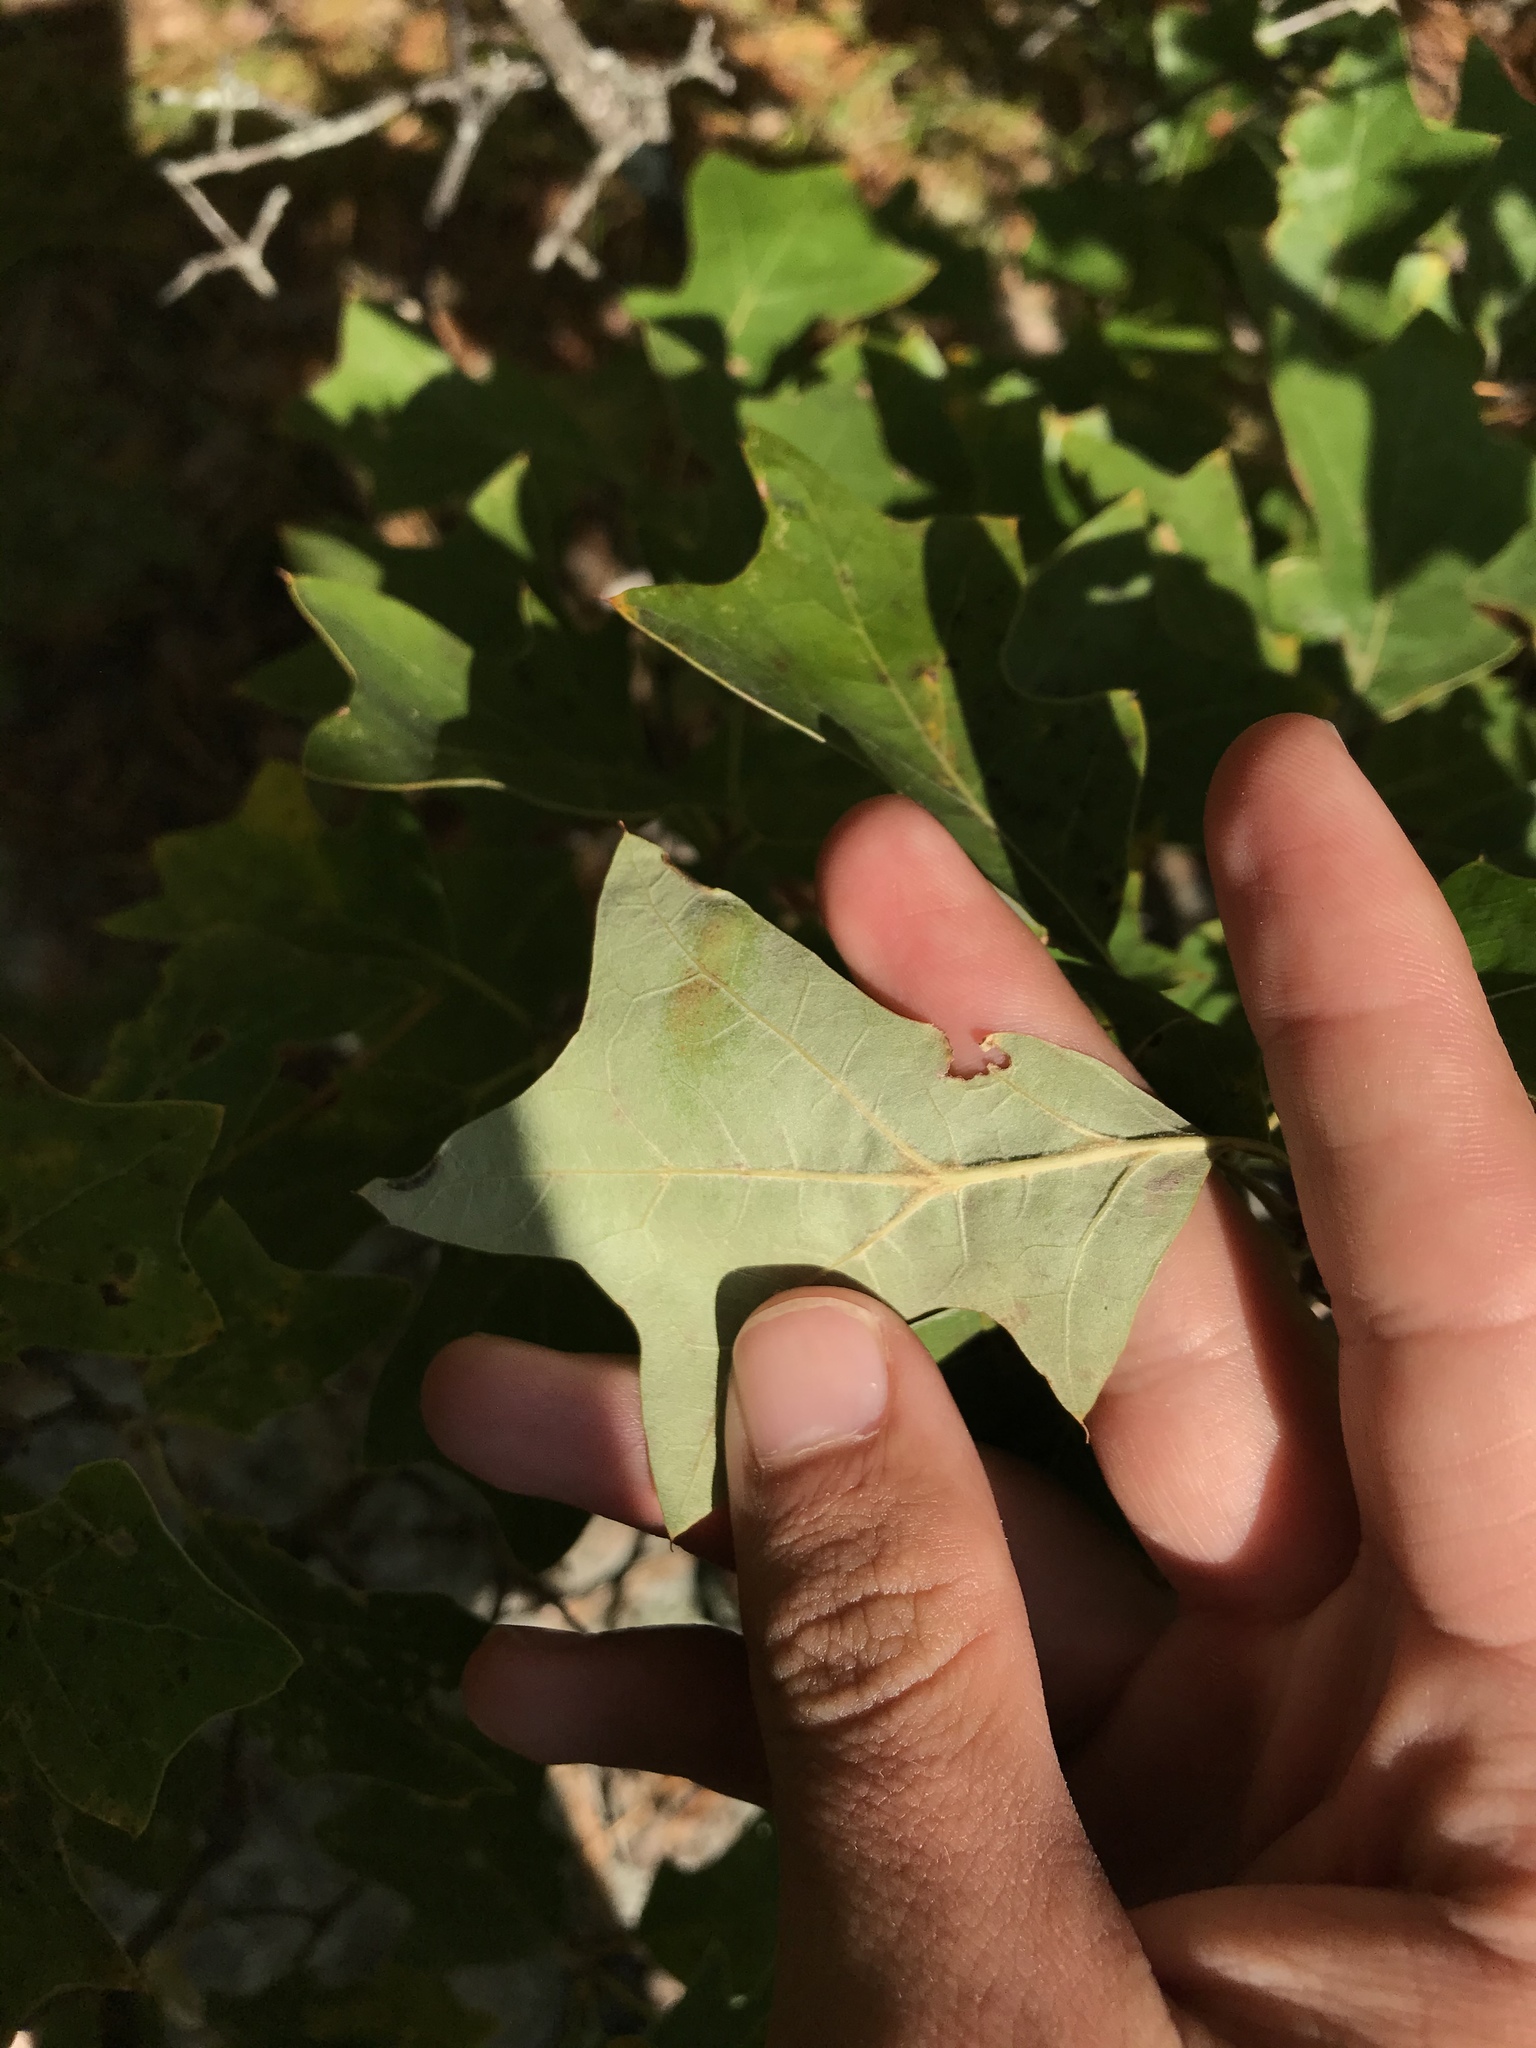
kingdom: Plantae
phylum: Tracheophyta
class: Magnoliopsida
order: Fagales
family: Fagaceae
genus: Quercus
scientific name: Quercus ilicifolia
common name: Bear oak
